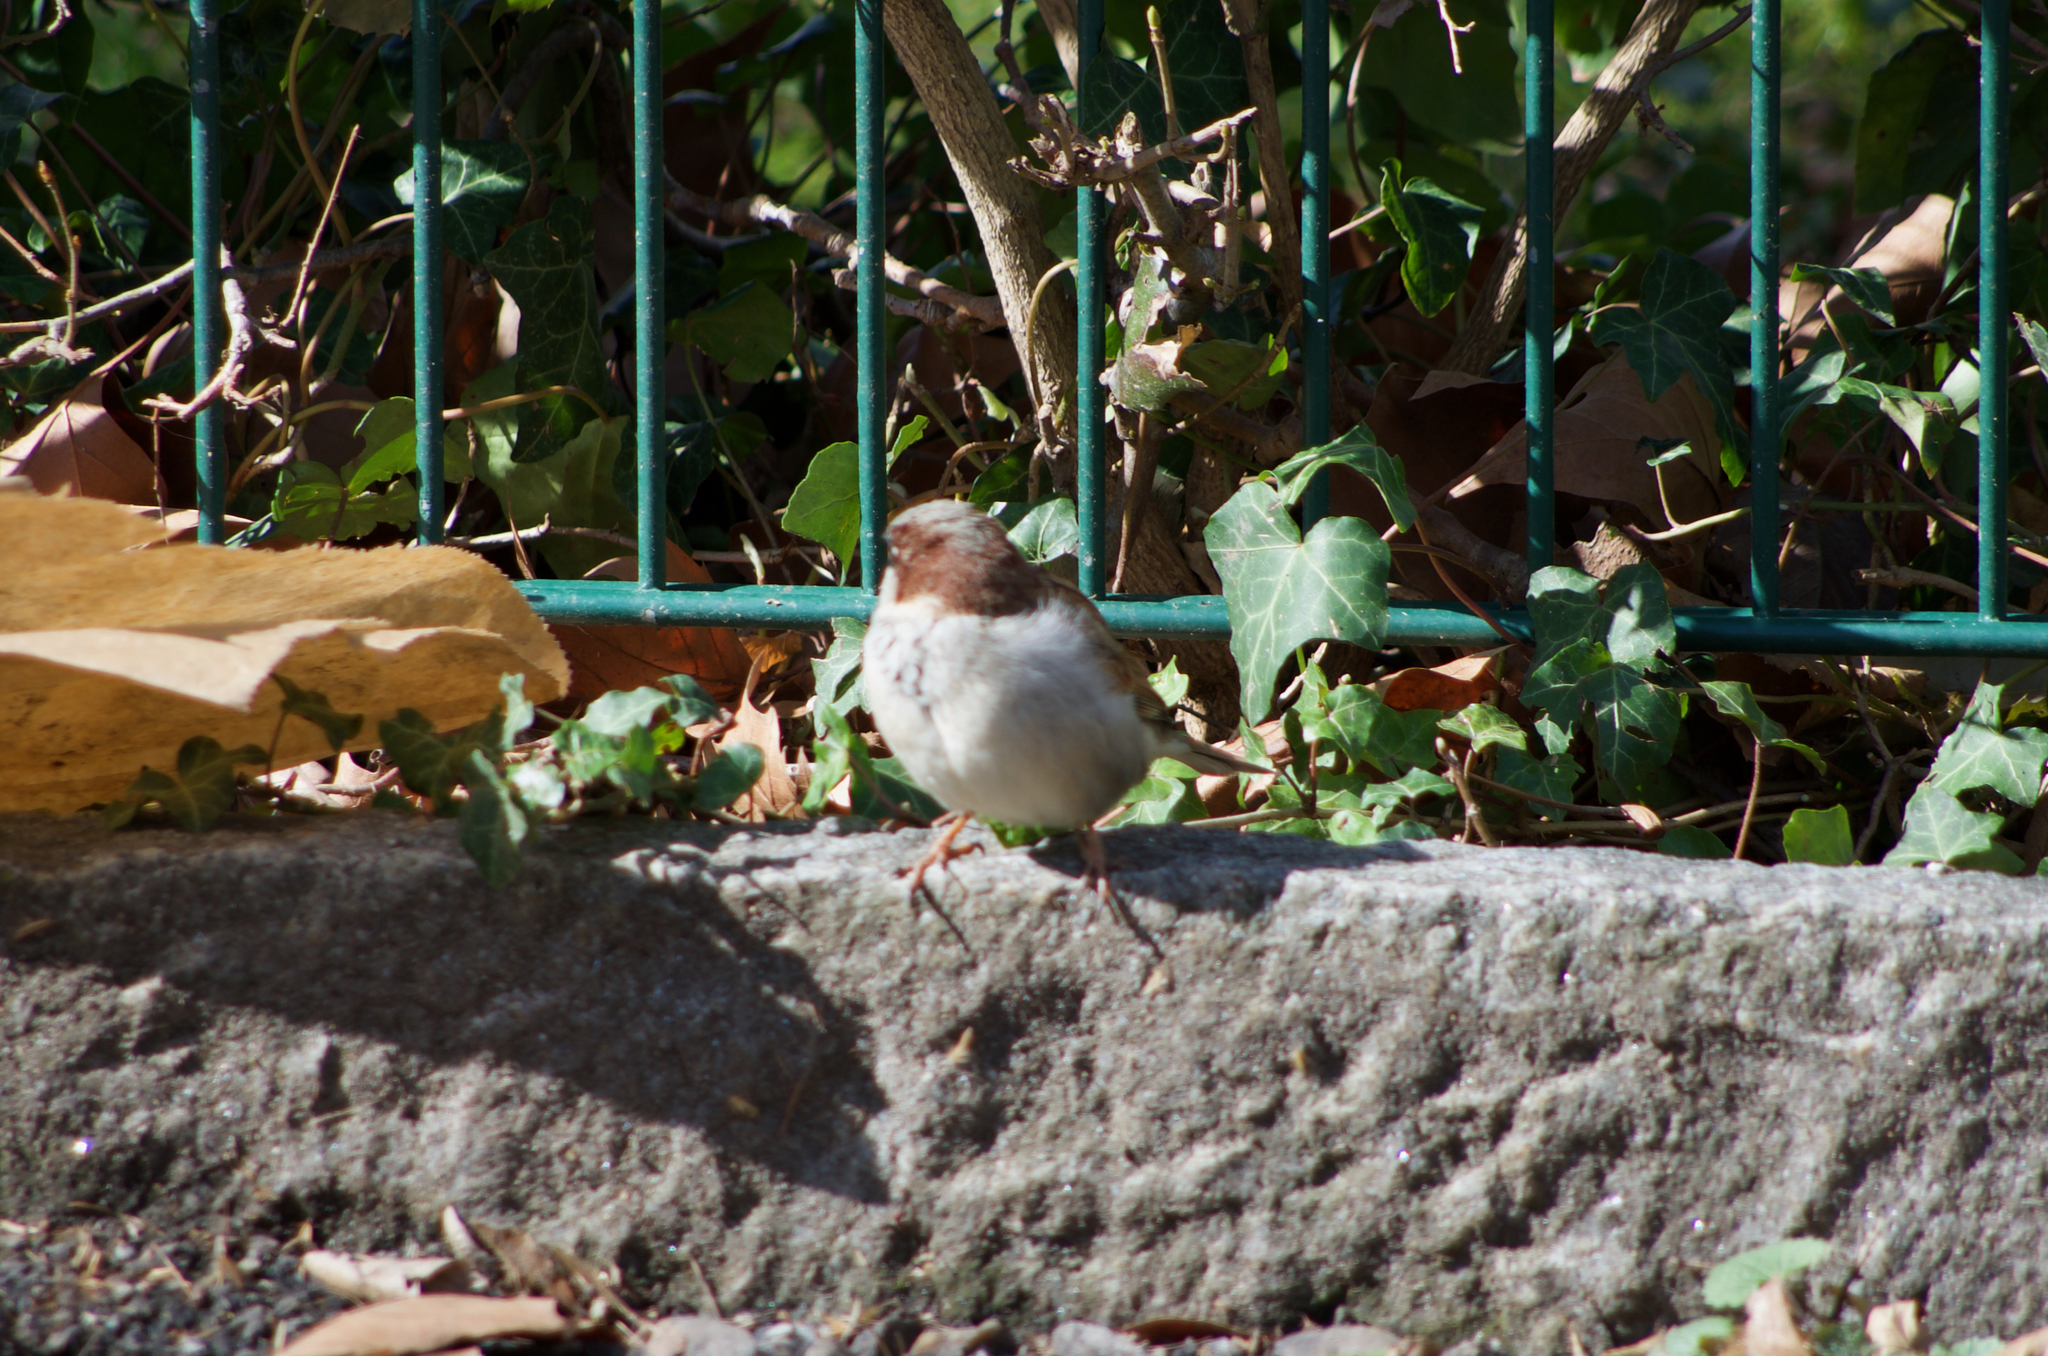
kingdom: Animalia
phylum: Chordata
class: Aves
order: Passeriformes
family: Passeridae
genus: Passer
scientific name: Passer domesticus
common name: House sparrow
